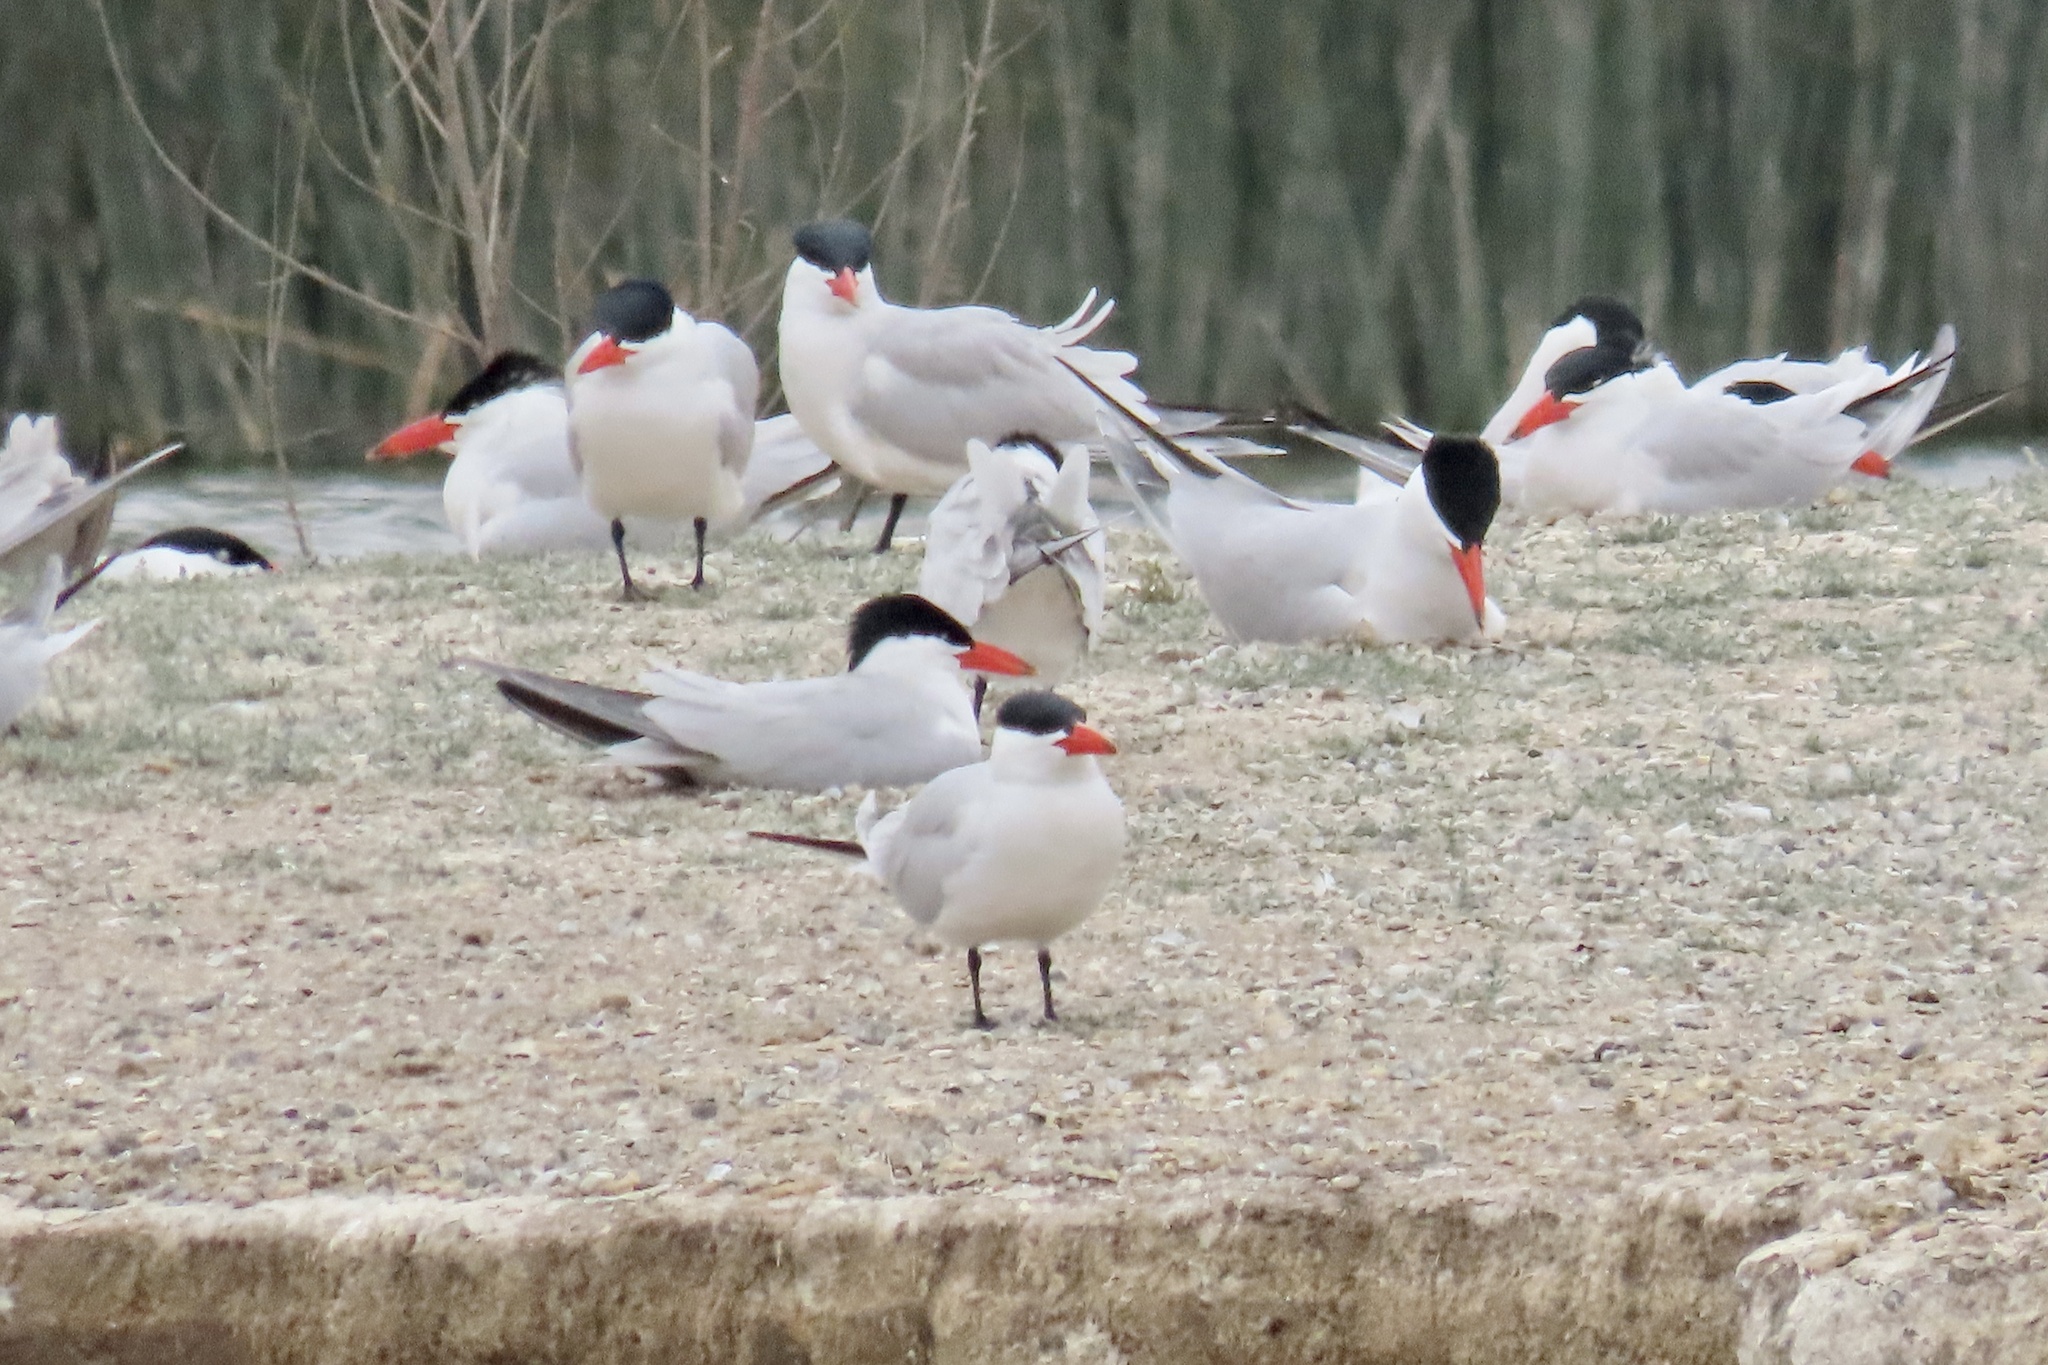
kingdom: Animalia
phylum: Chordata
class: Aves
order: Charadriiformes
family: Laridae
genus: Hydroprogne
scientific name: Hydroprogne caspia
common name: Caspian tern
